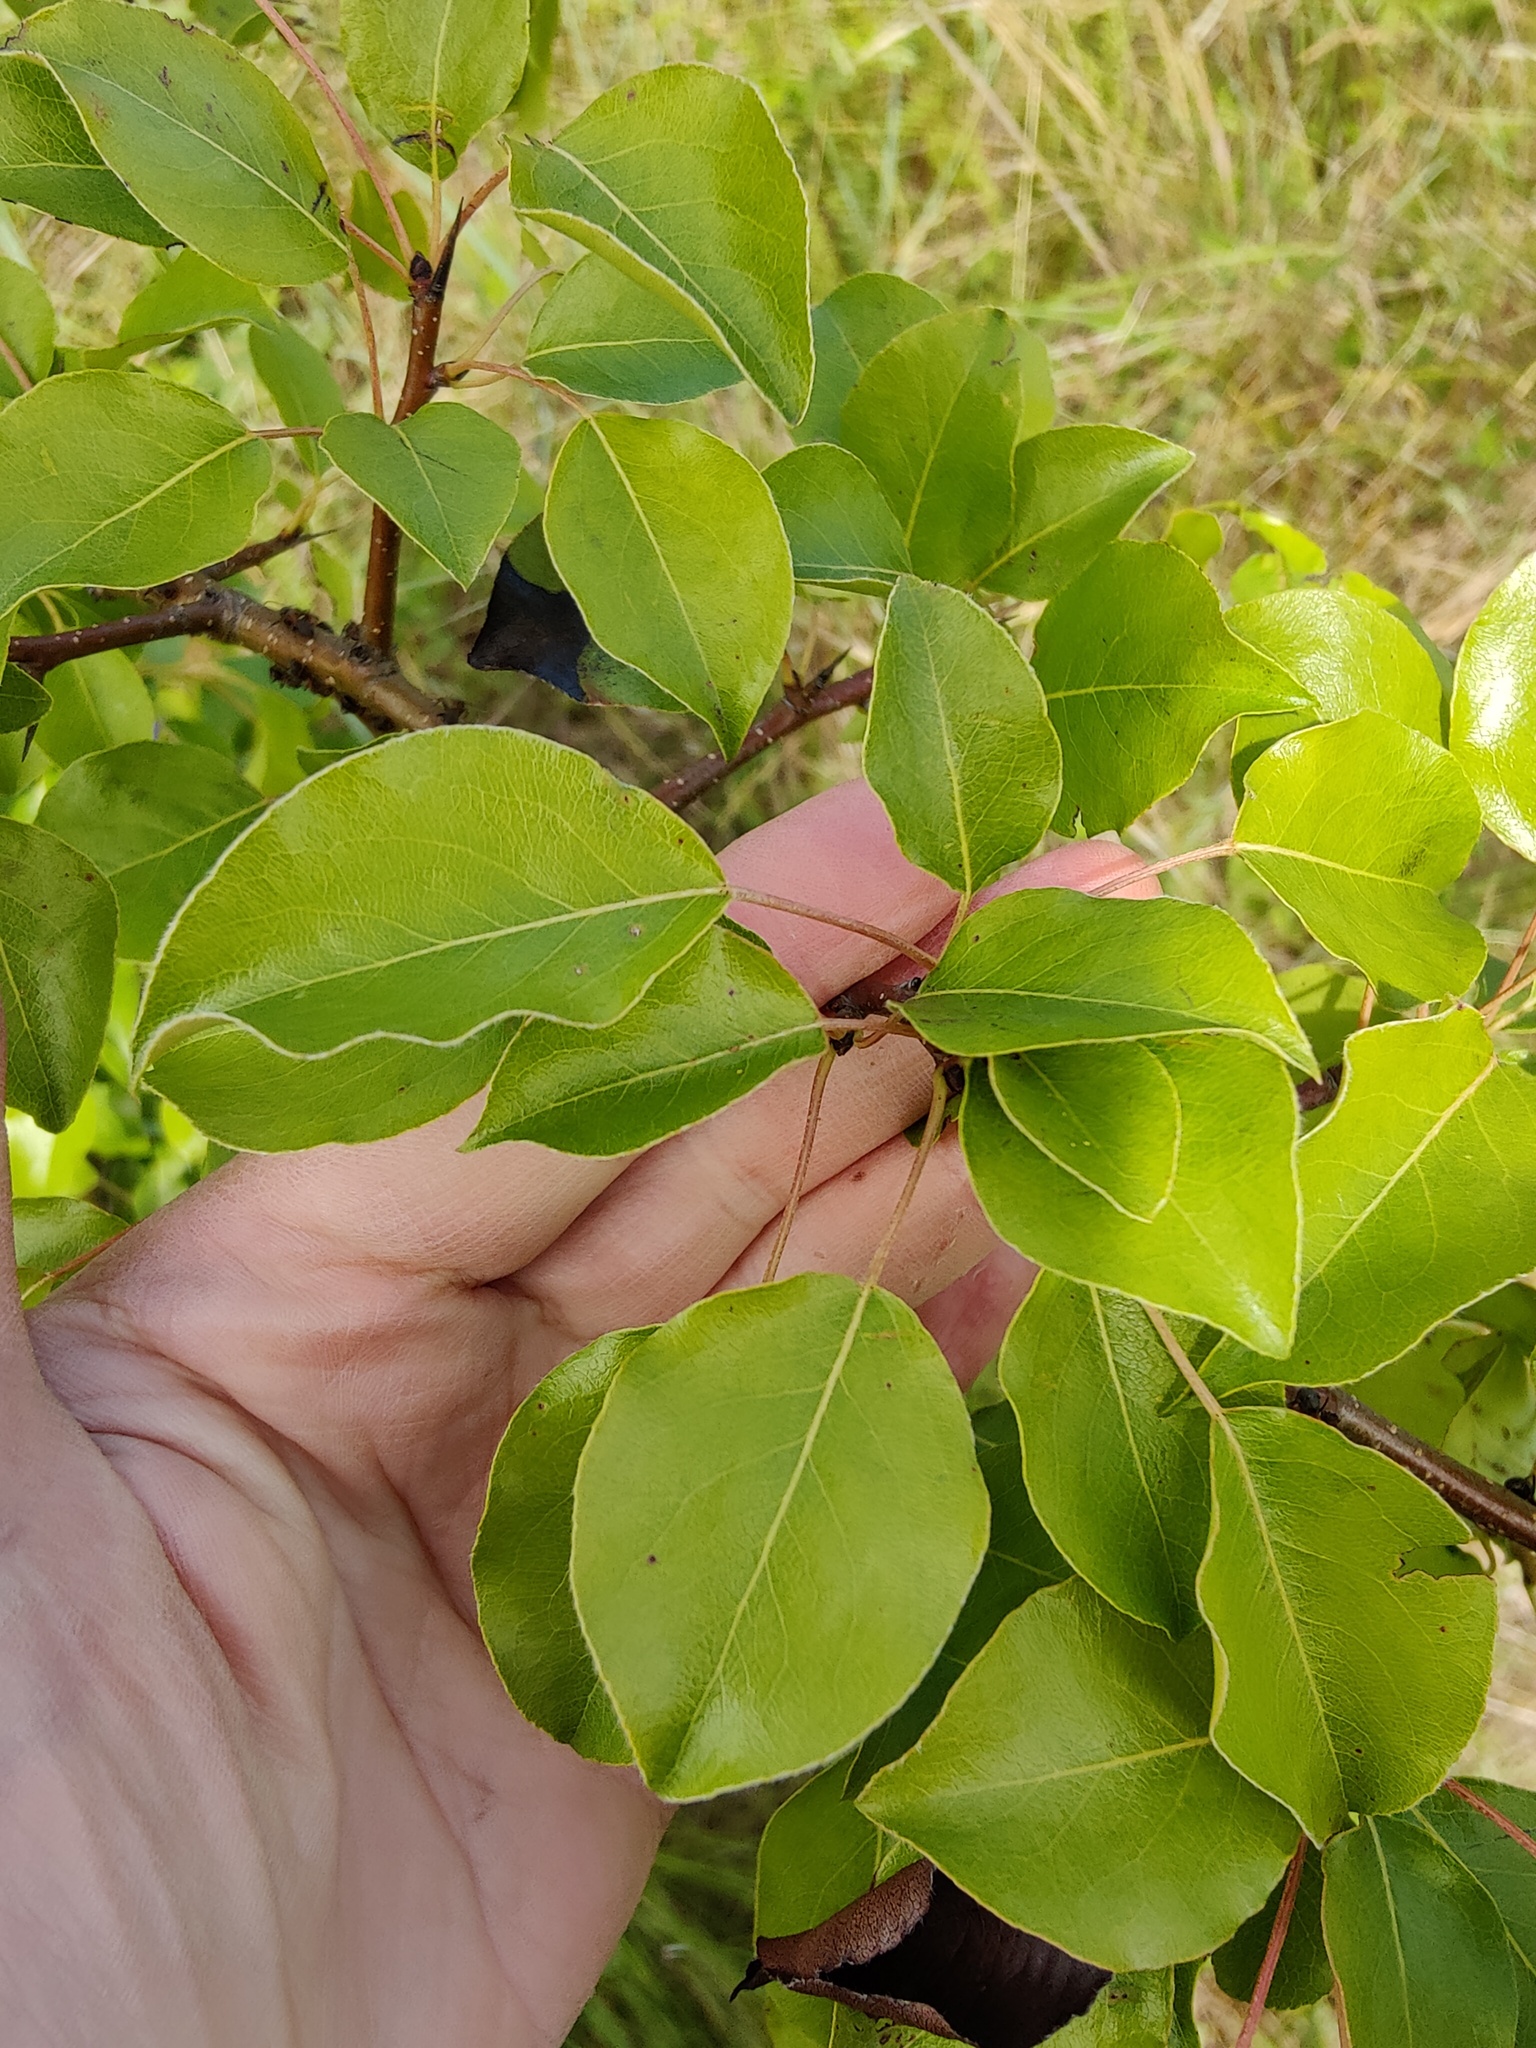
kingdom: Plantae
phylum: Tracheophyta
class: Magnoliopsida
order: Rosales
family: Rosaceae
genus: Pyrus
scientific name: Pyrus communis
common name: Pear
